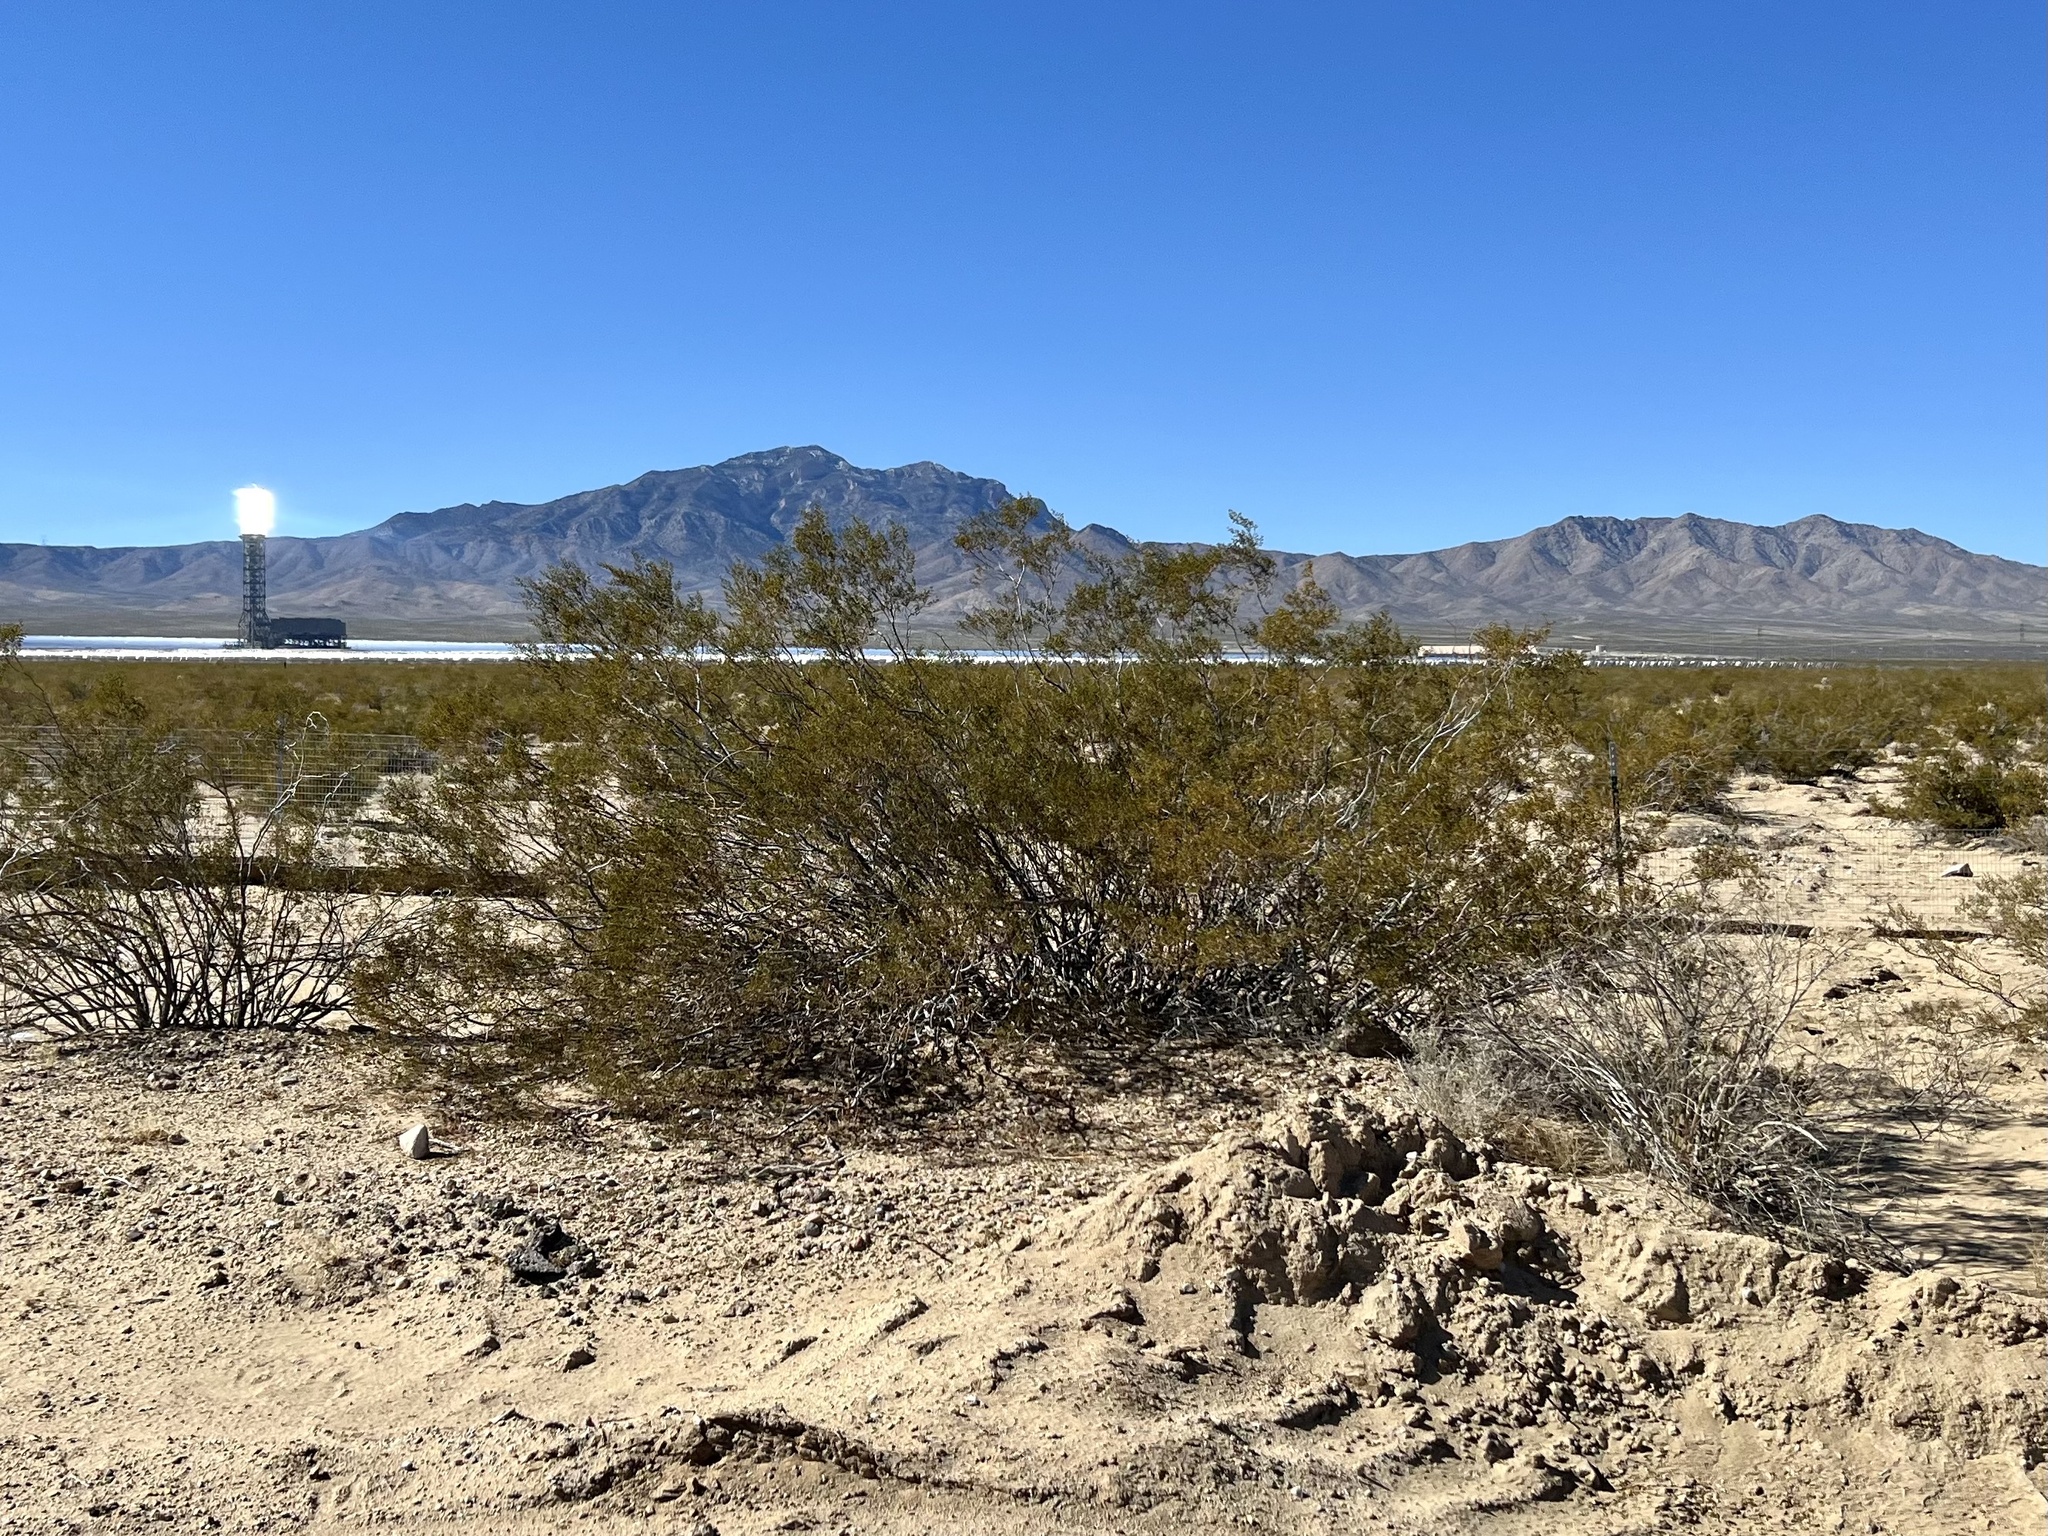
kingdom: Plantae
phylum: Tracheophyta
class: Magnoliopsida
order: Zygophyllales
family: Zygophyllaceae
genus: Larrea
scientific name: Larrea tridentata
